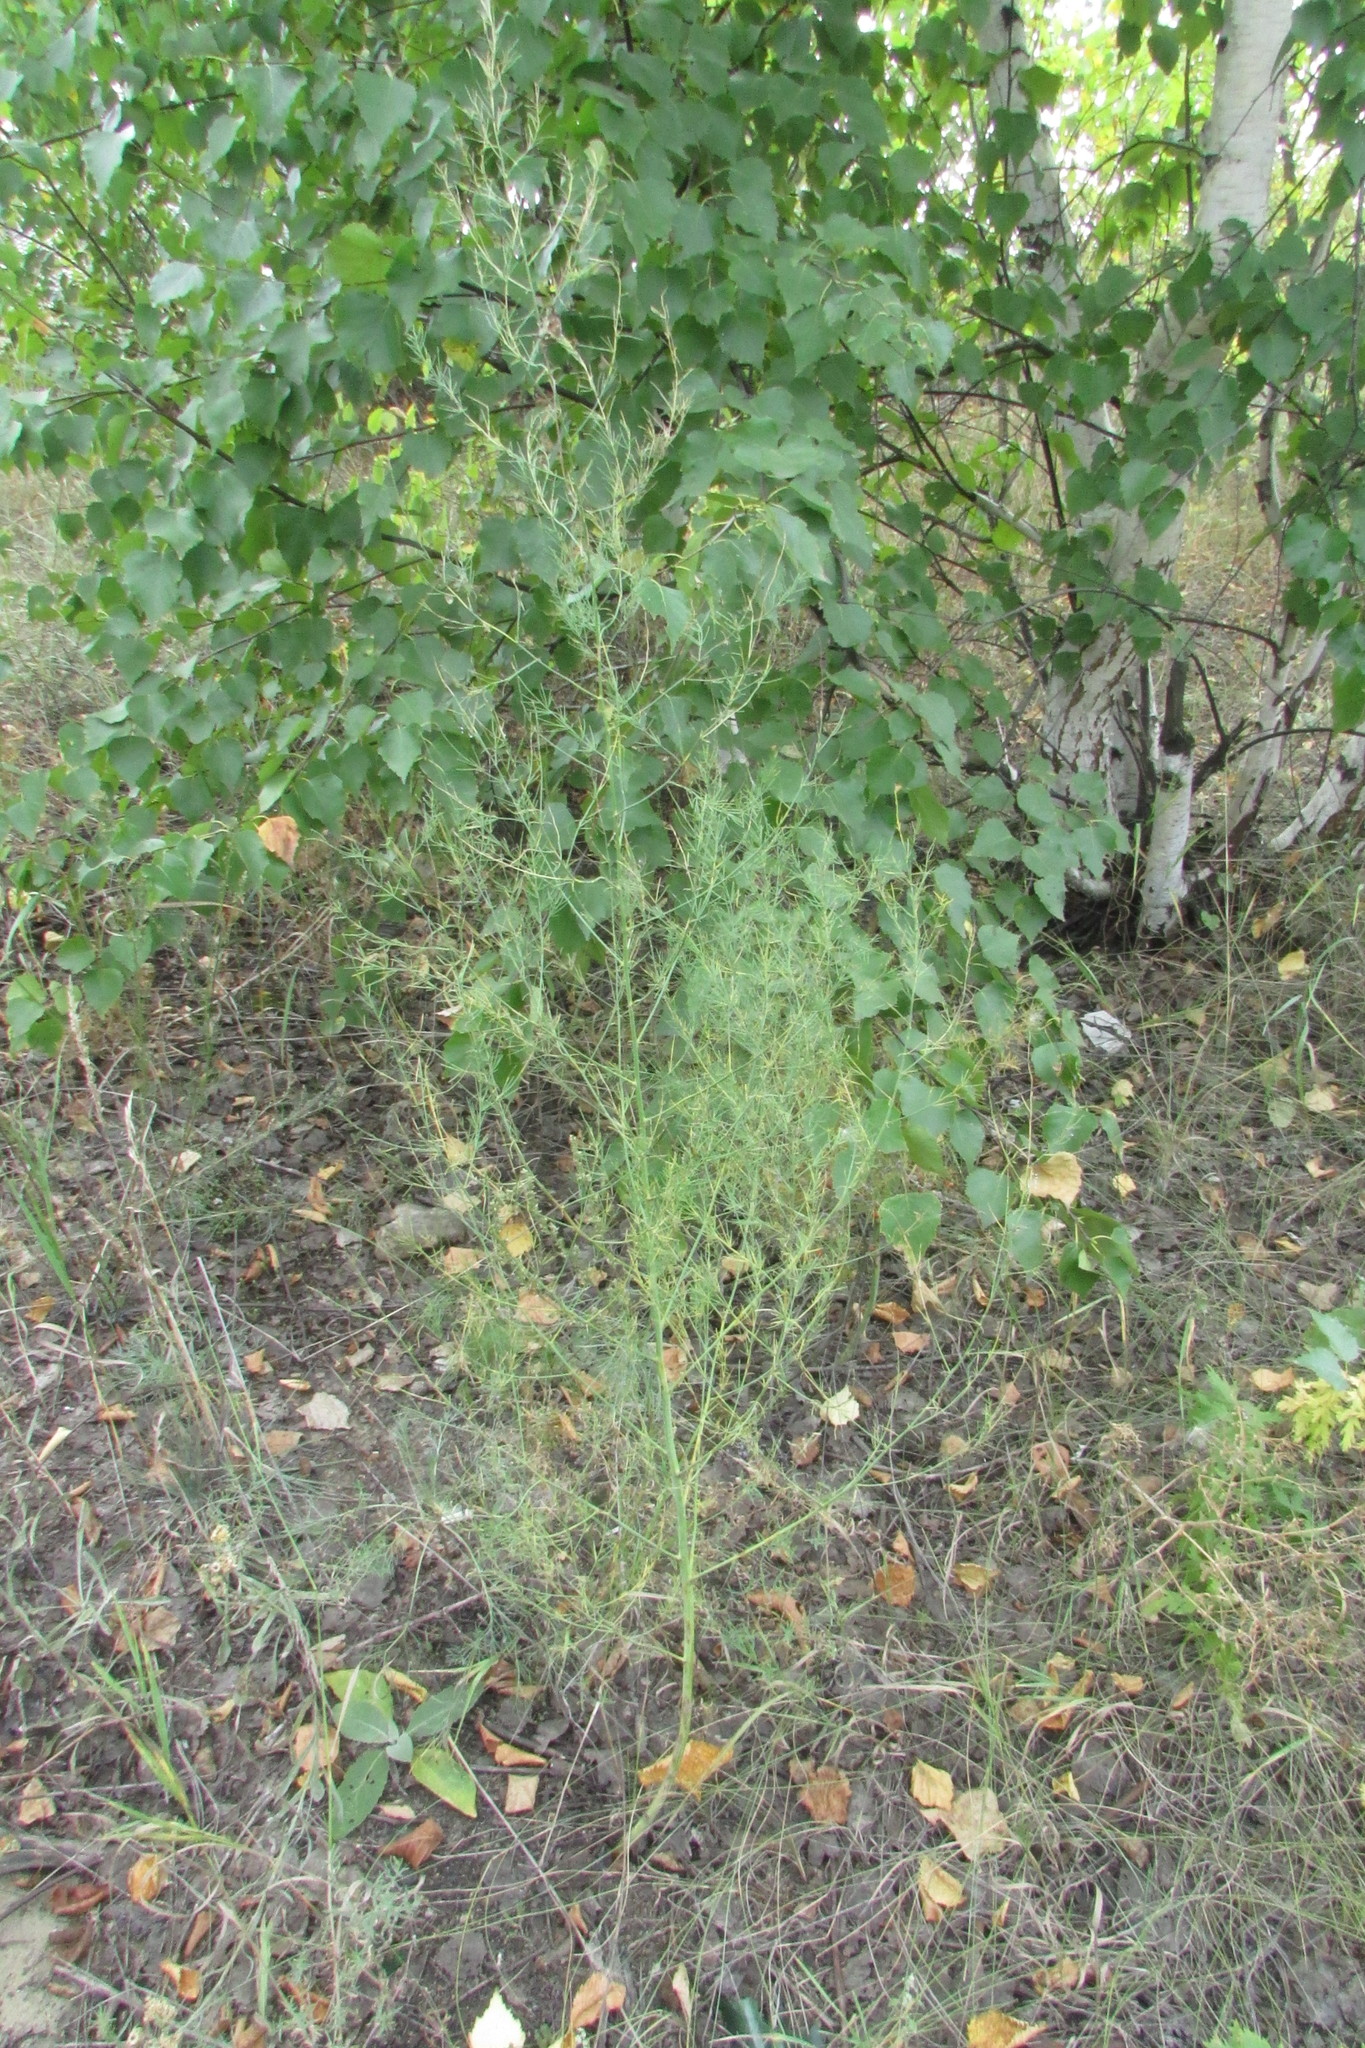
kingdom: Plantae
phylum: Tracheophyta
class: Liliopsida
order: Asparagales
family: Asparagaceae
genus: Asparagus
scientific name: Asparagus officinalis
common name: Garden asparagus
